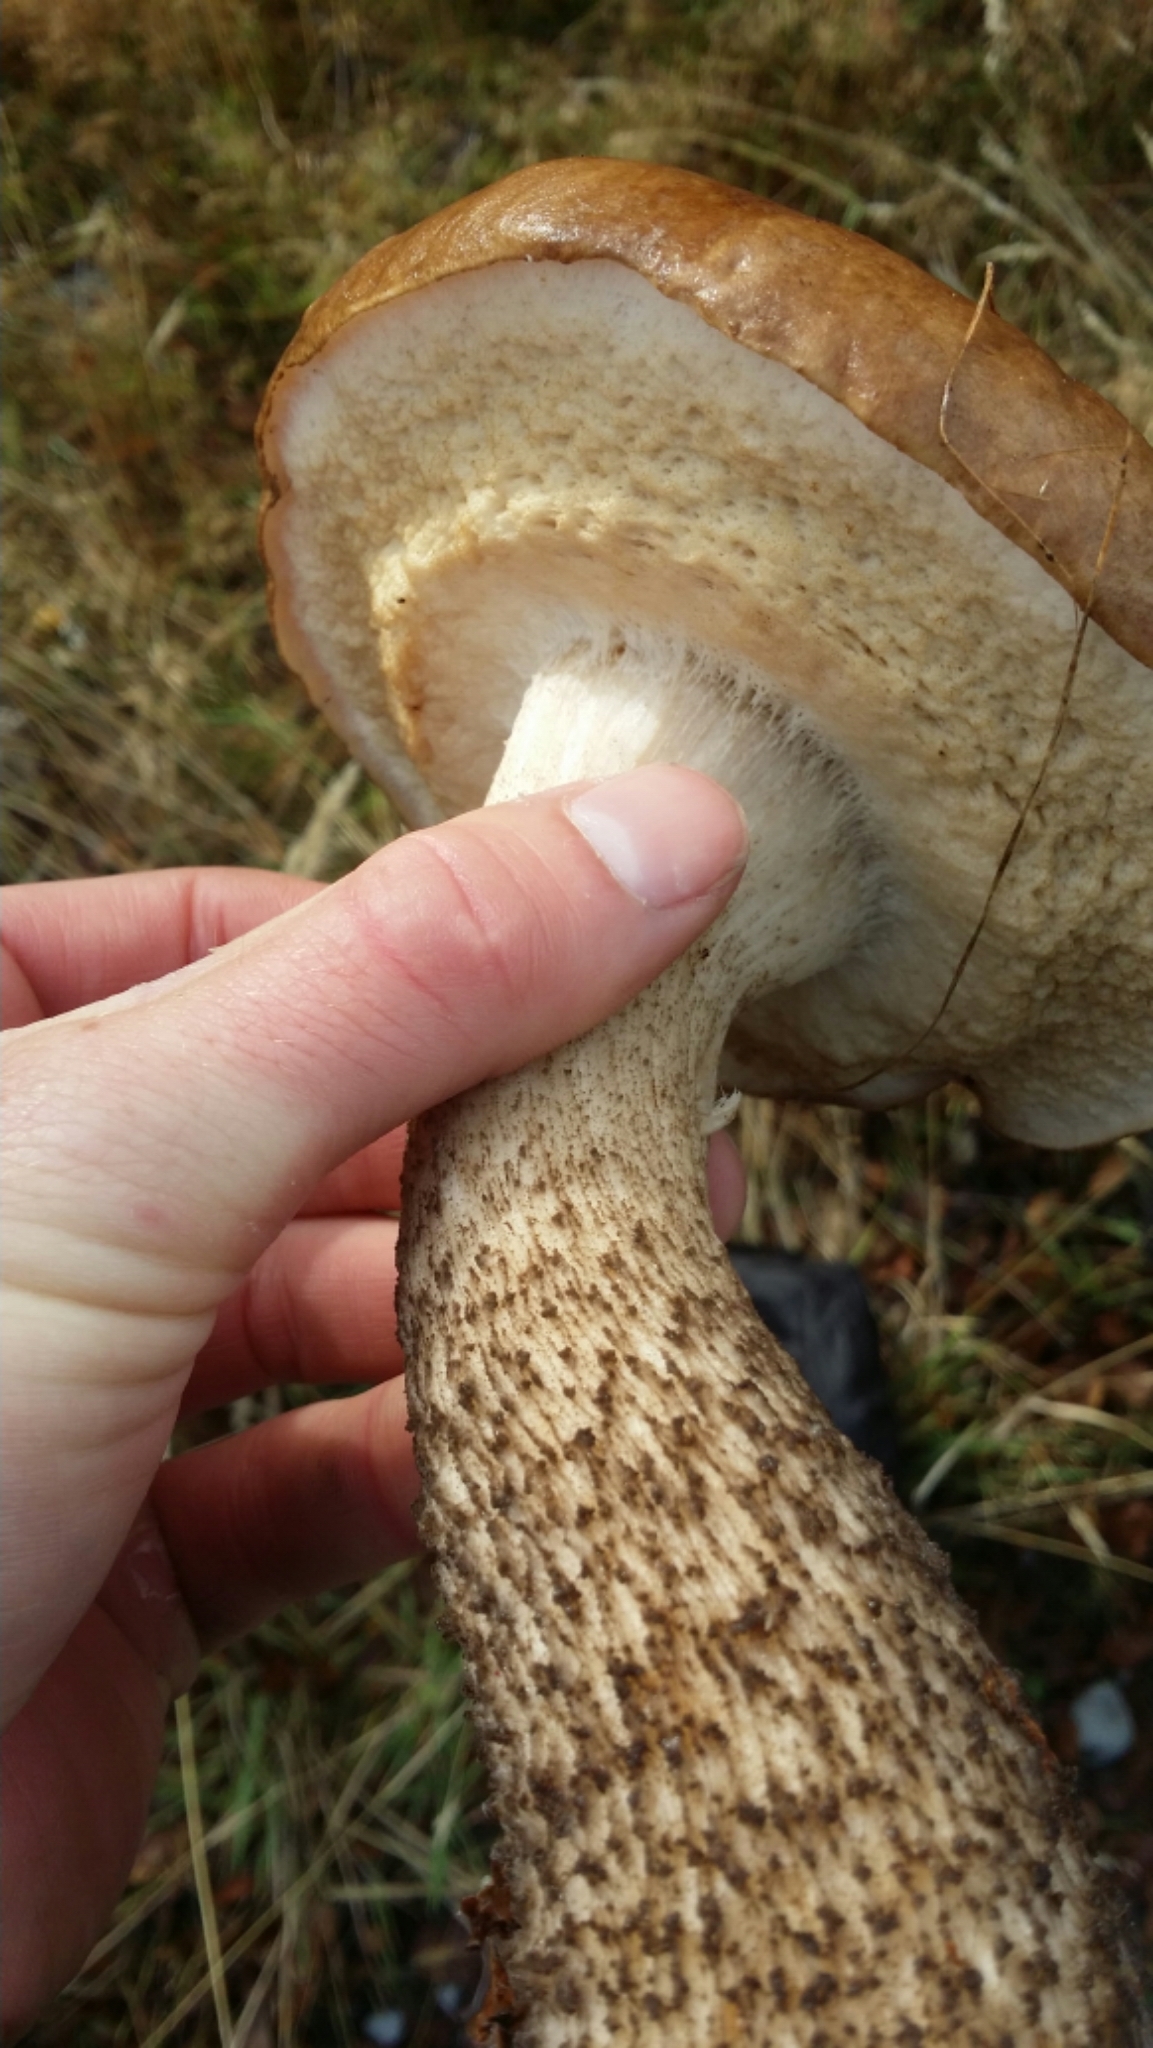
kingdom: Fungi
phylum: Basidiomycota
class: Agaricomycetes
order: Boletales
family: Boletaceae
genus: Leccinum
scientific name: Leccinum scabrum
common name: Blushing bolete
